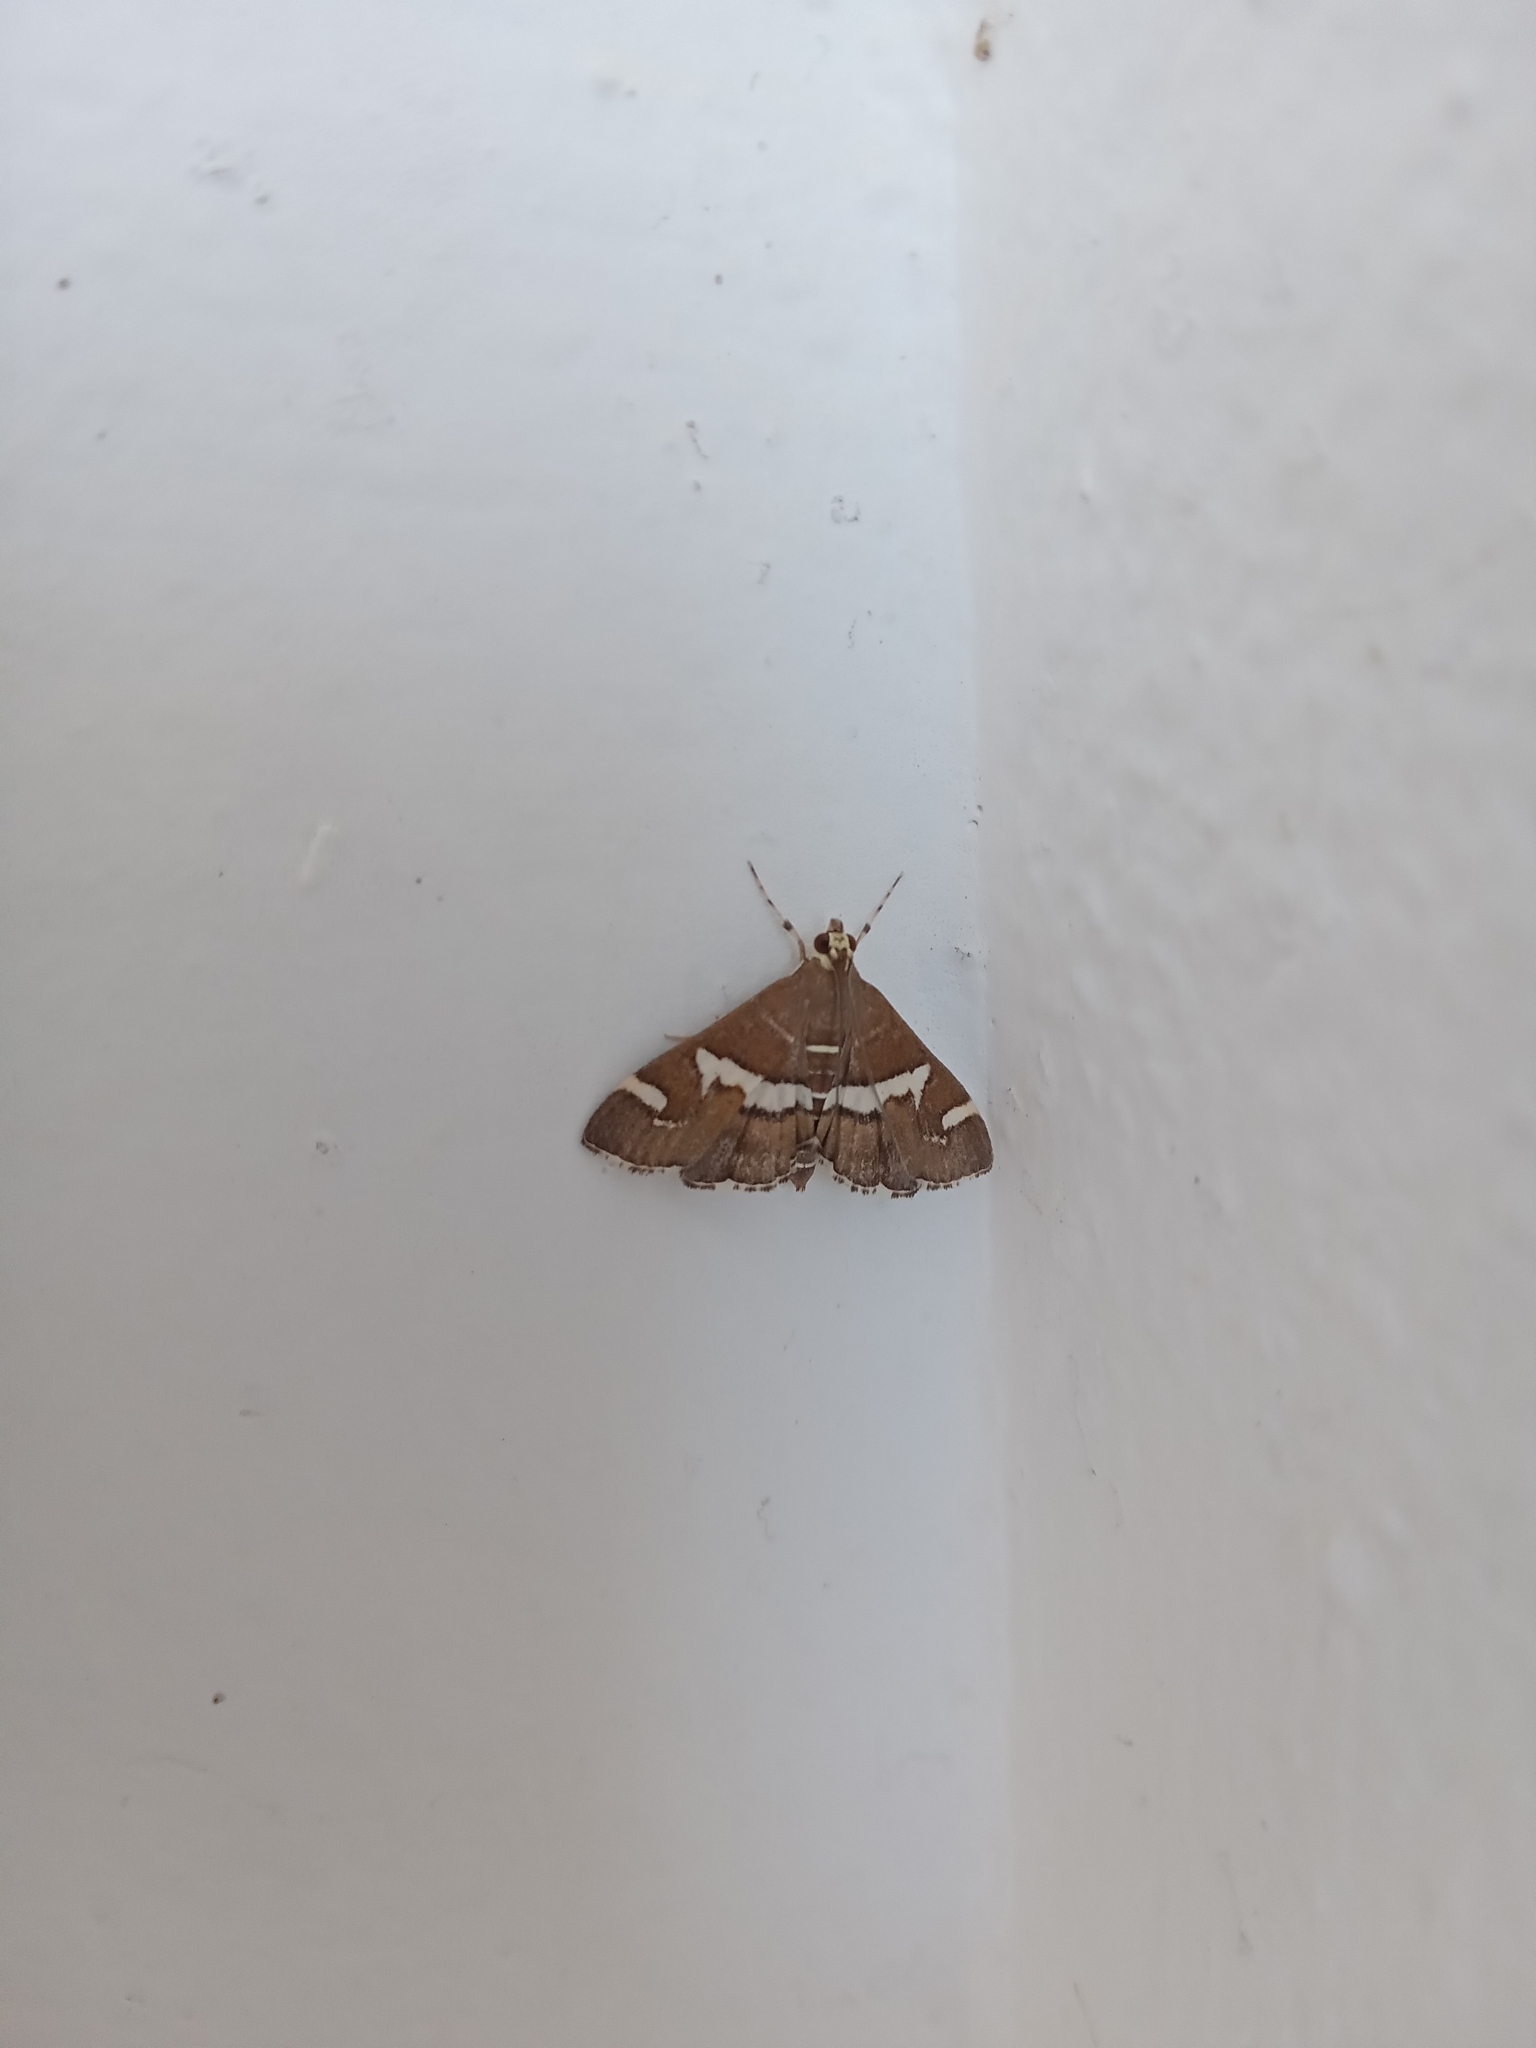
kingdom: Animalia
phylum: Arthropoda
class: Insecta
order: Lepidoptera
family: Crambidae
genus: Spoladea
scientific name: Spoladea recurvalis
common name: Beet webworm moth
